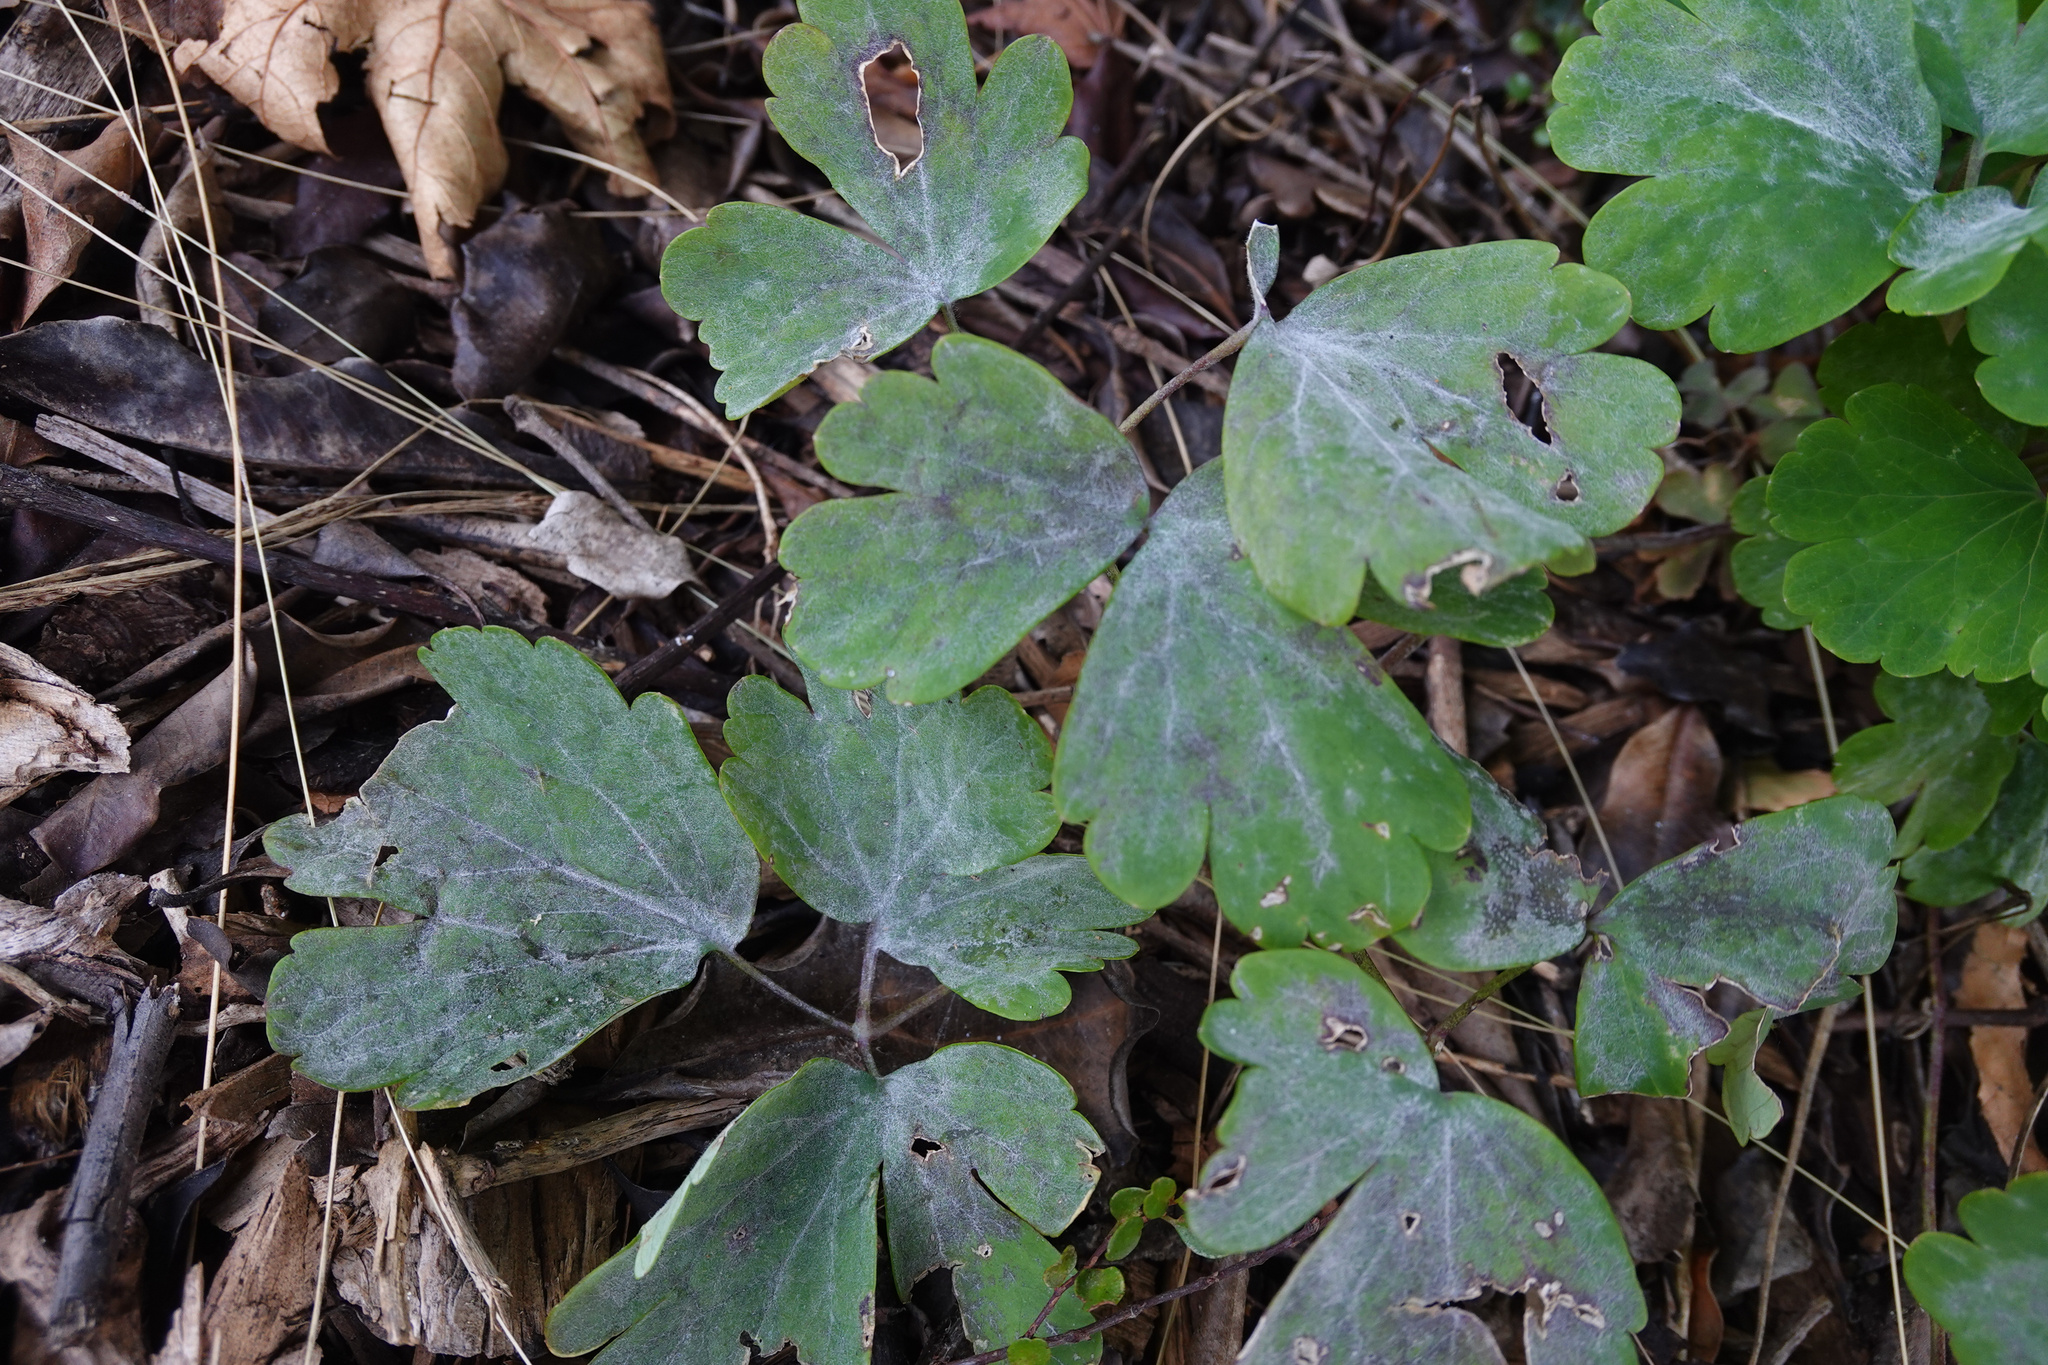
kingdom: Fungi
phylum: Ascomycota
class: Leotiomycetes
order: Helotiales
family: Erysiphaceae
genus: Erysiphe
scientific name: Erysiphe aquilegiae
